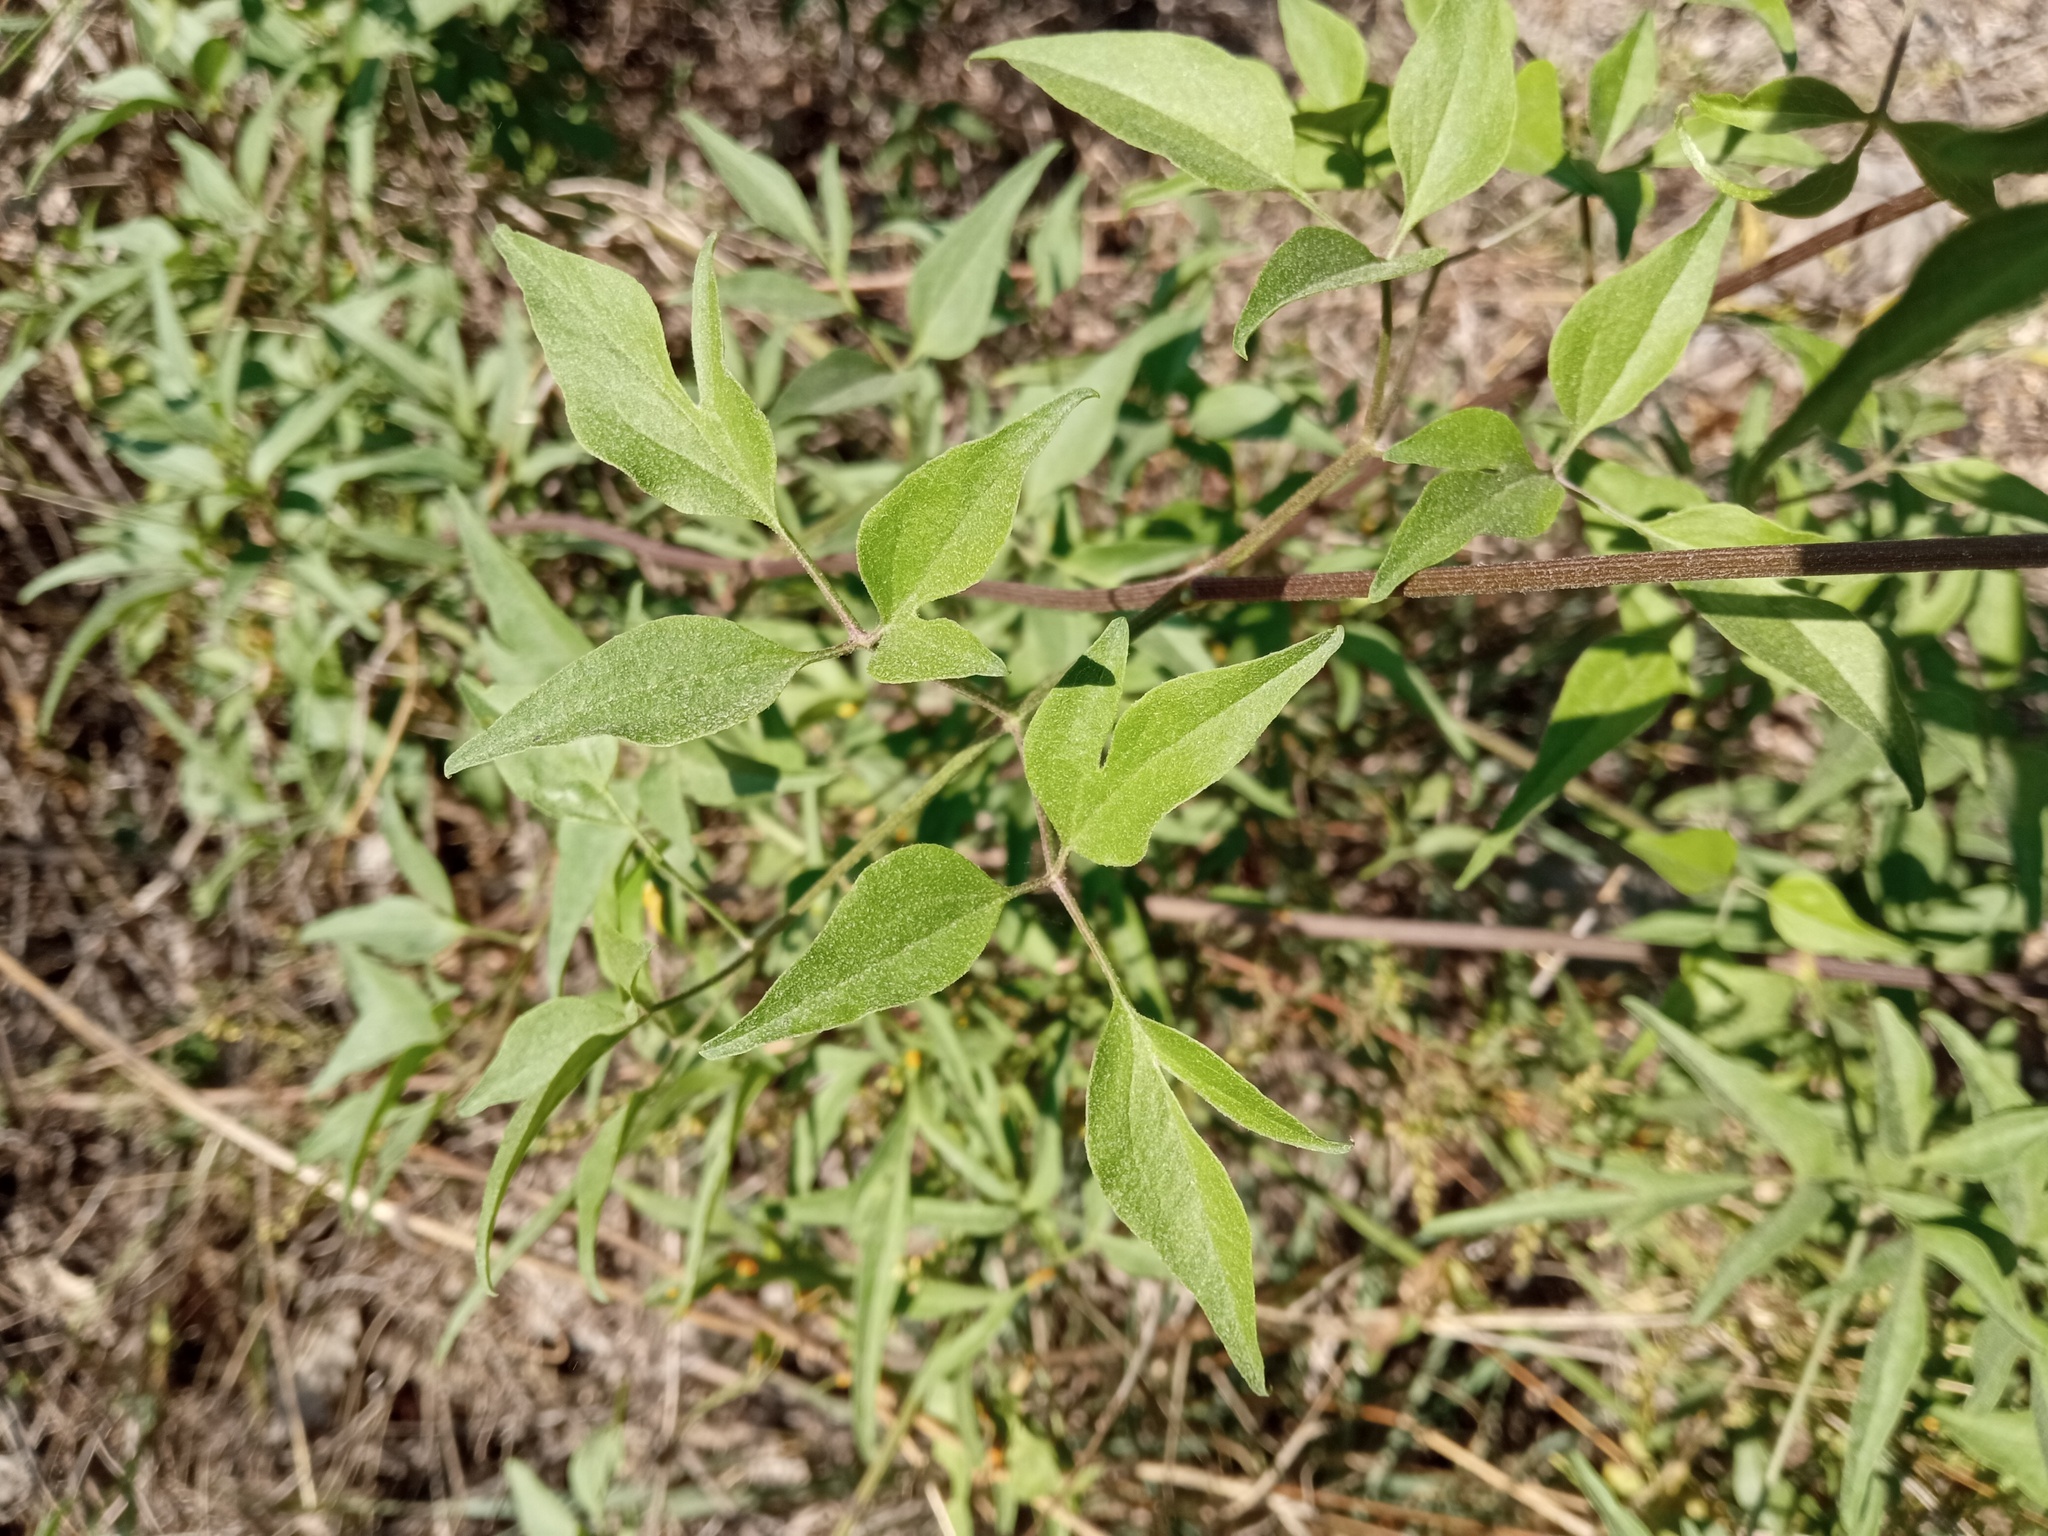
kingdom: Plantae
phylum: Tracheophyta
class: Magnoliopsida
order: Ranunculales
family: Ranunculaceae
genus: Clematis
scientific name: Clematis flammula
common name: Virgin's-bower
